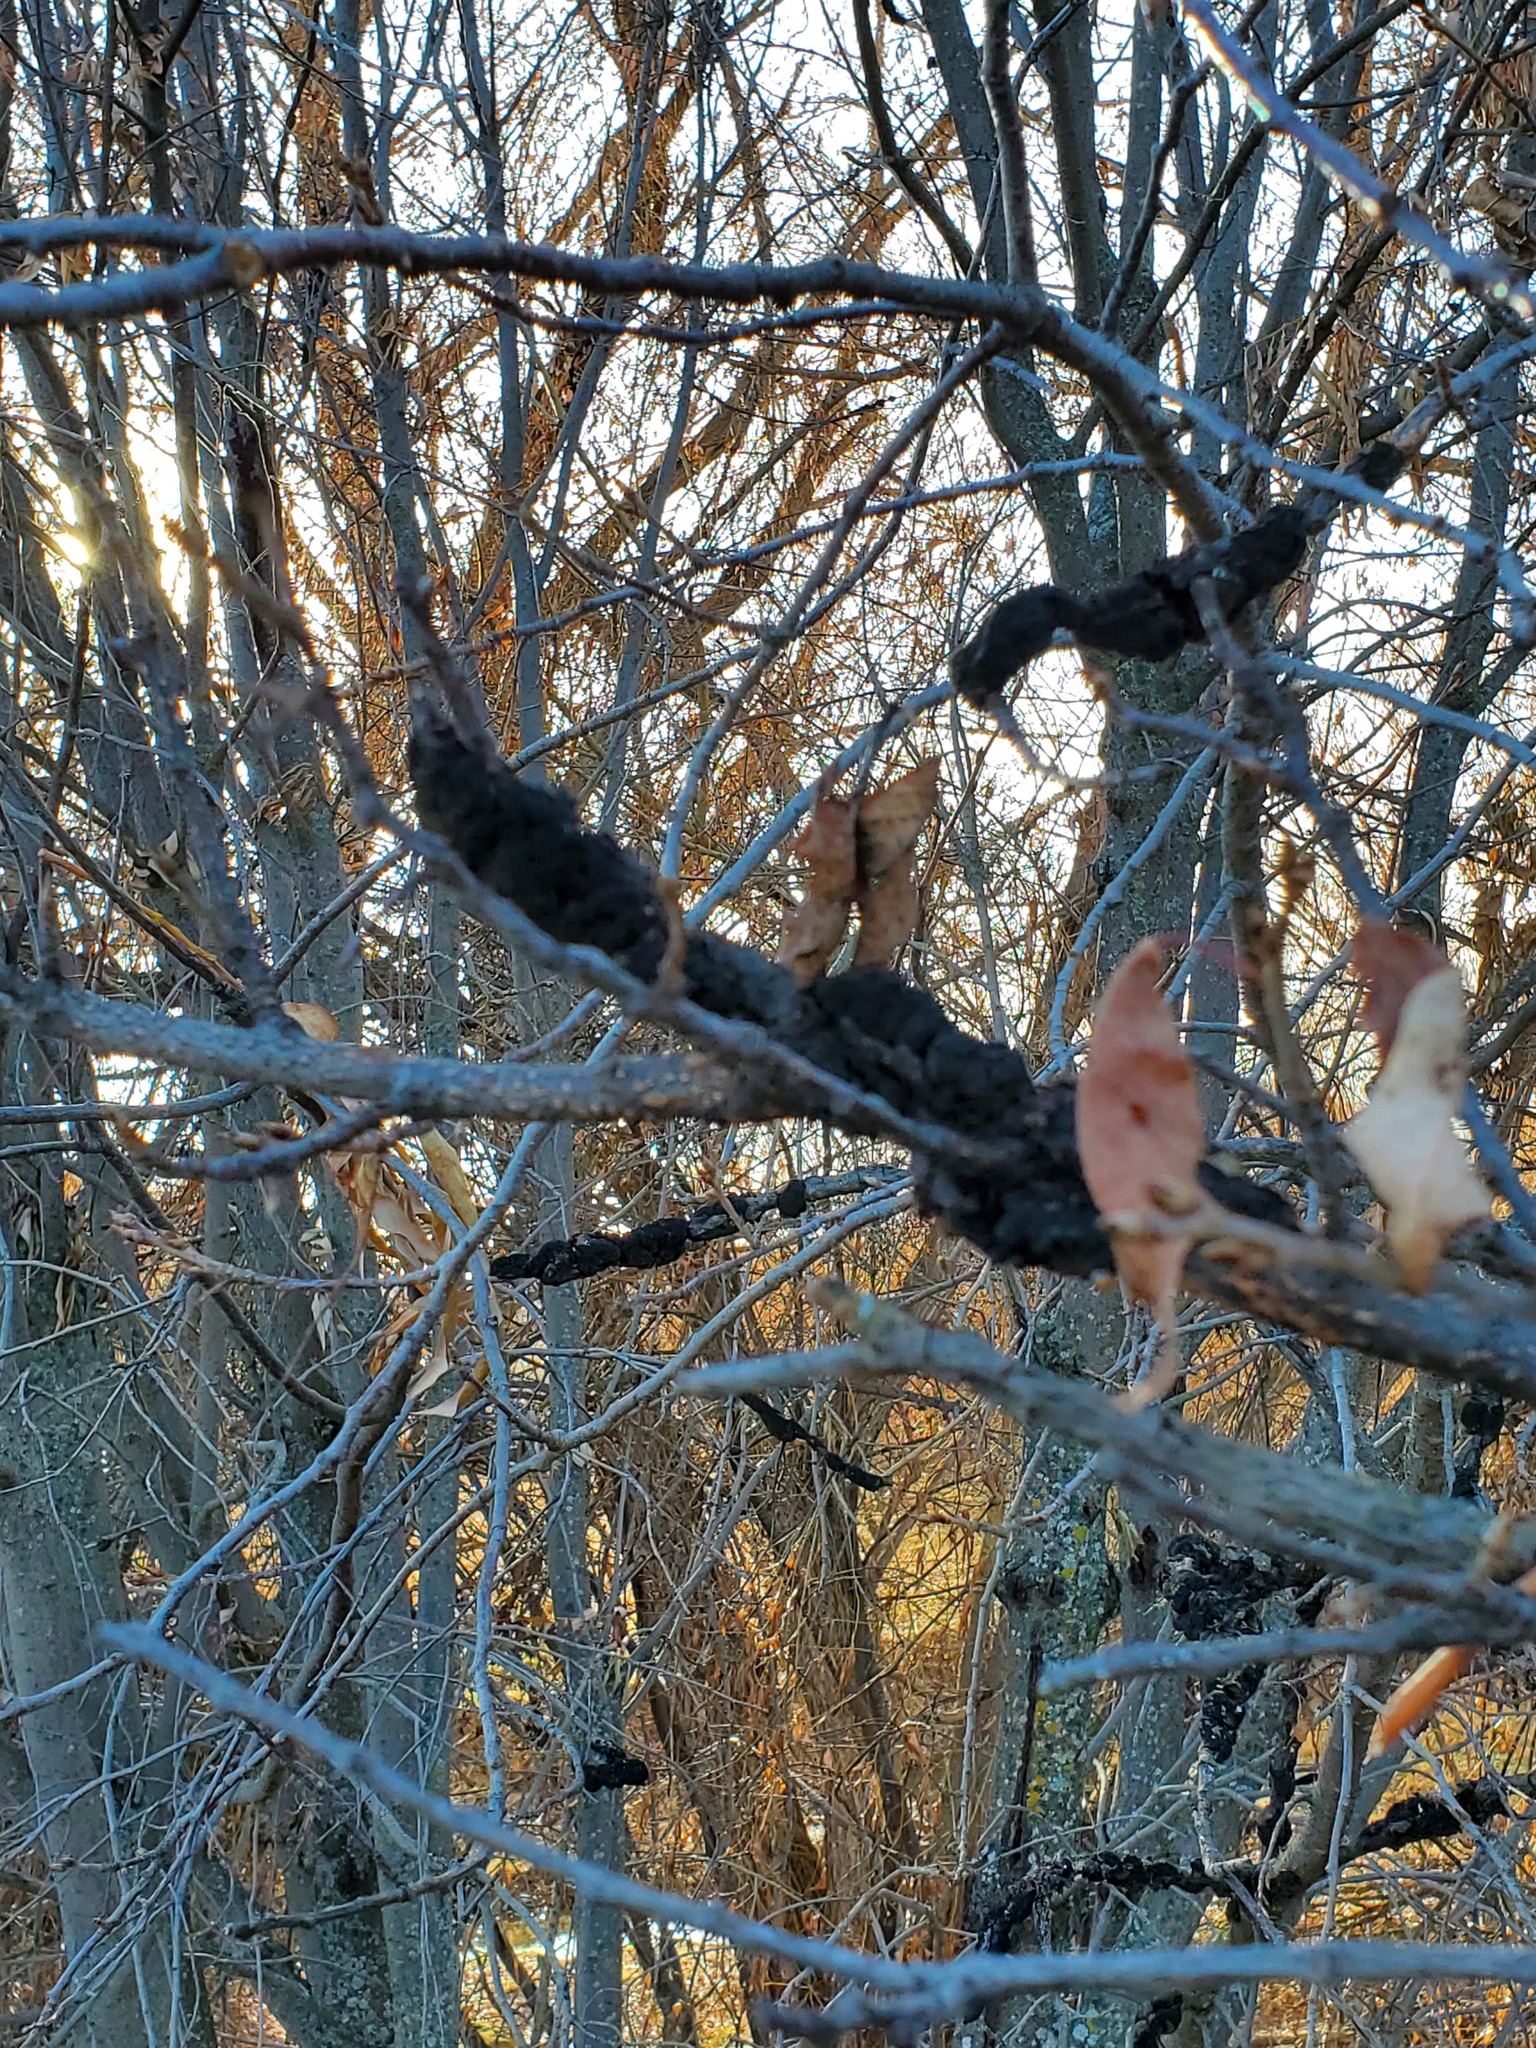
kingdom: Fungi
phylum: Ascomycota
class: Dothideomycetes
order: Venturiales
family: Venturiaceae
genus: Apiosporina
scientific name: Apiosporina morbosa
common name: Black knot
